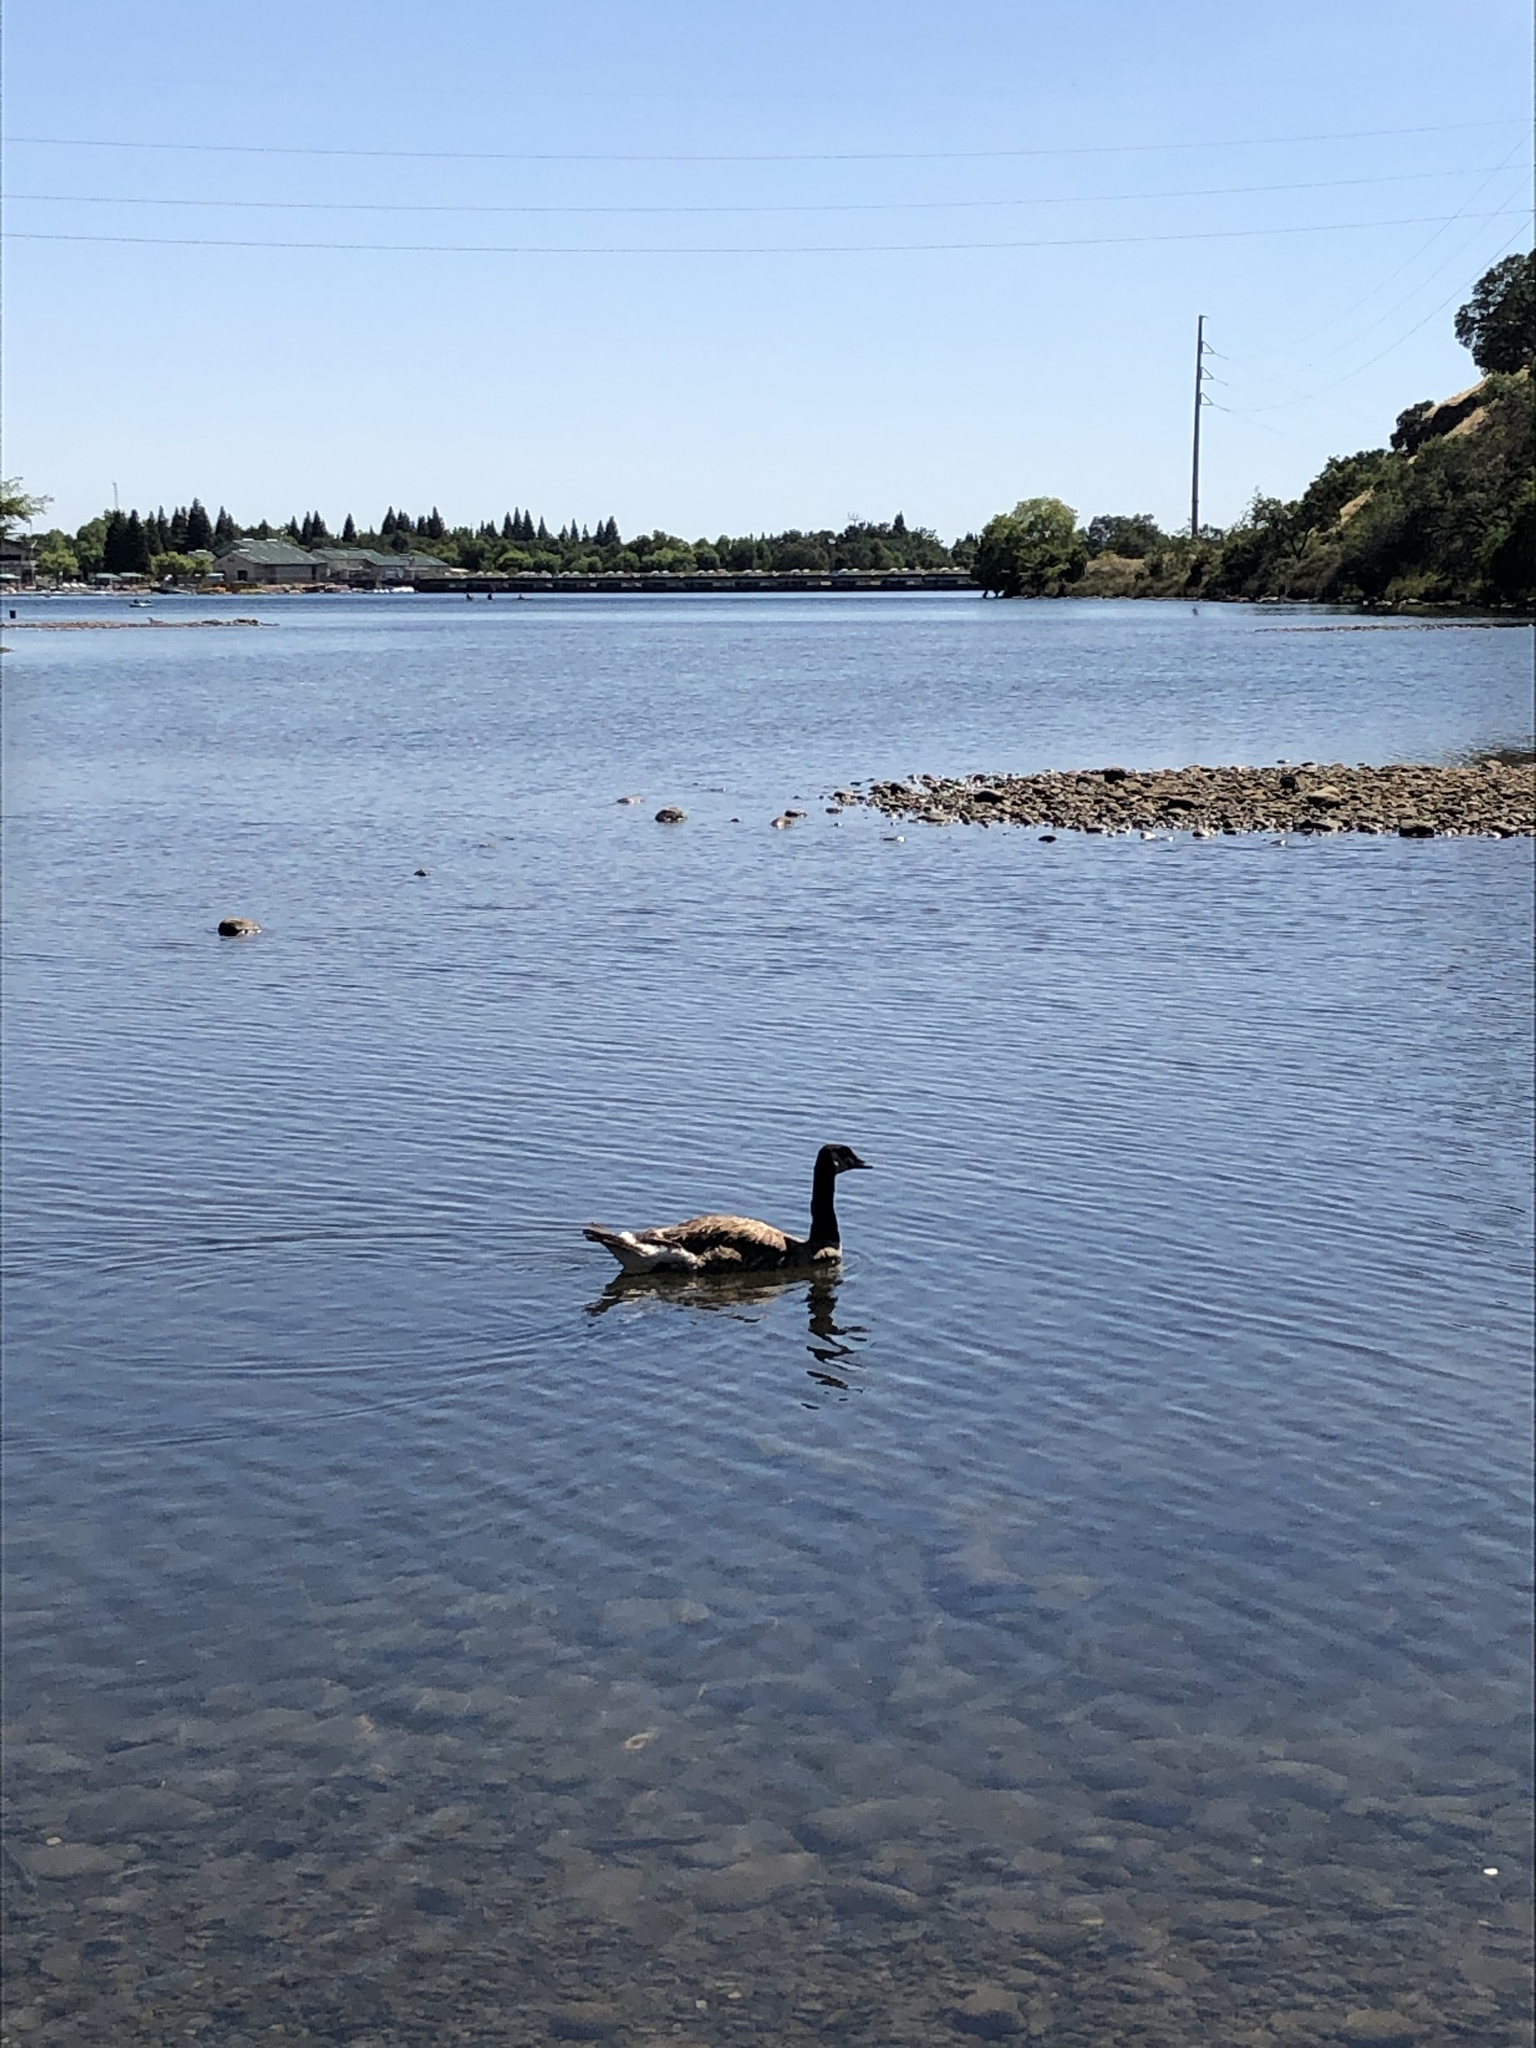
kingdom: Animalia
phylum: Chordata
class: Aves
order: Anseriformes
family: Anatidae
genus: Branta
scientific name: Branta canadensis
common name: Canada goose
